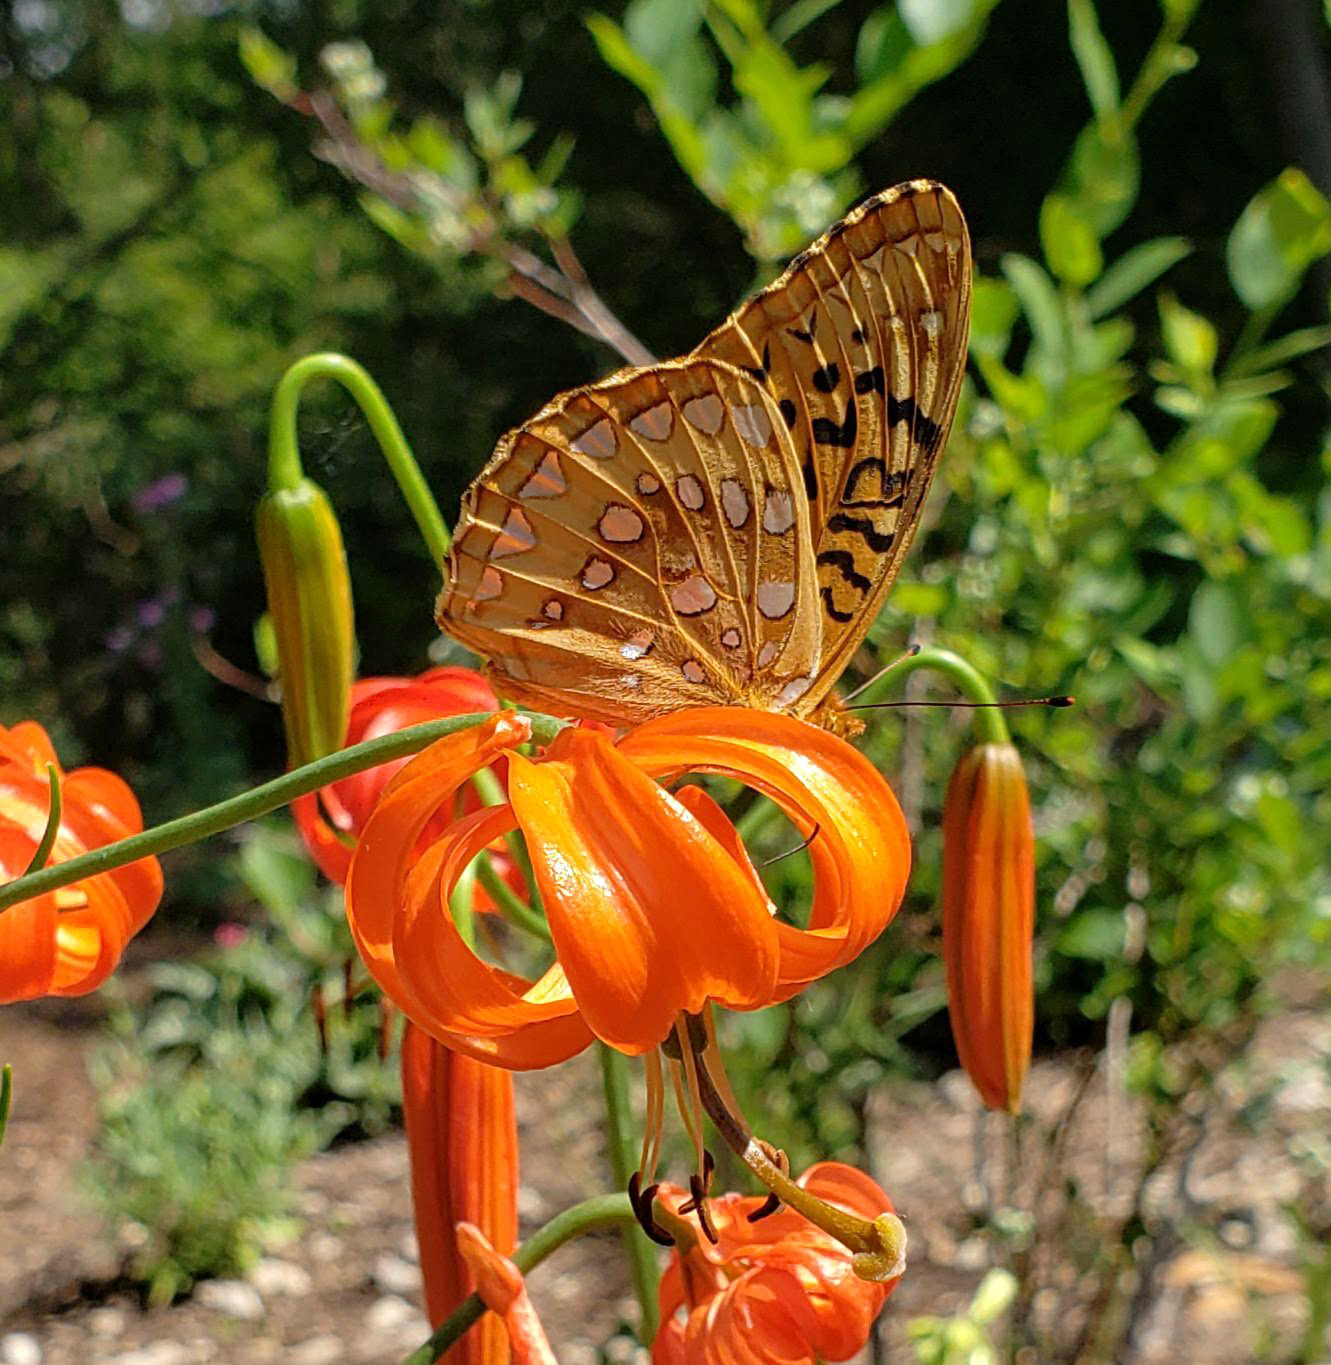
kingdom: Animalia
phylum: Arthropoda
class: Insecta
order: Lepidoptera
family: Nymphalidae
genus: Speyeria
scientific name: Speyeria cybele
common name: Great spangled fritillary
